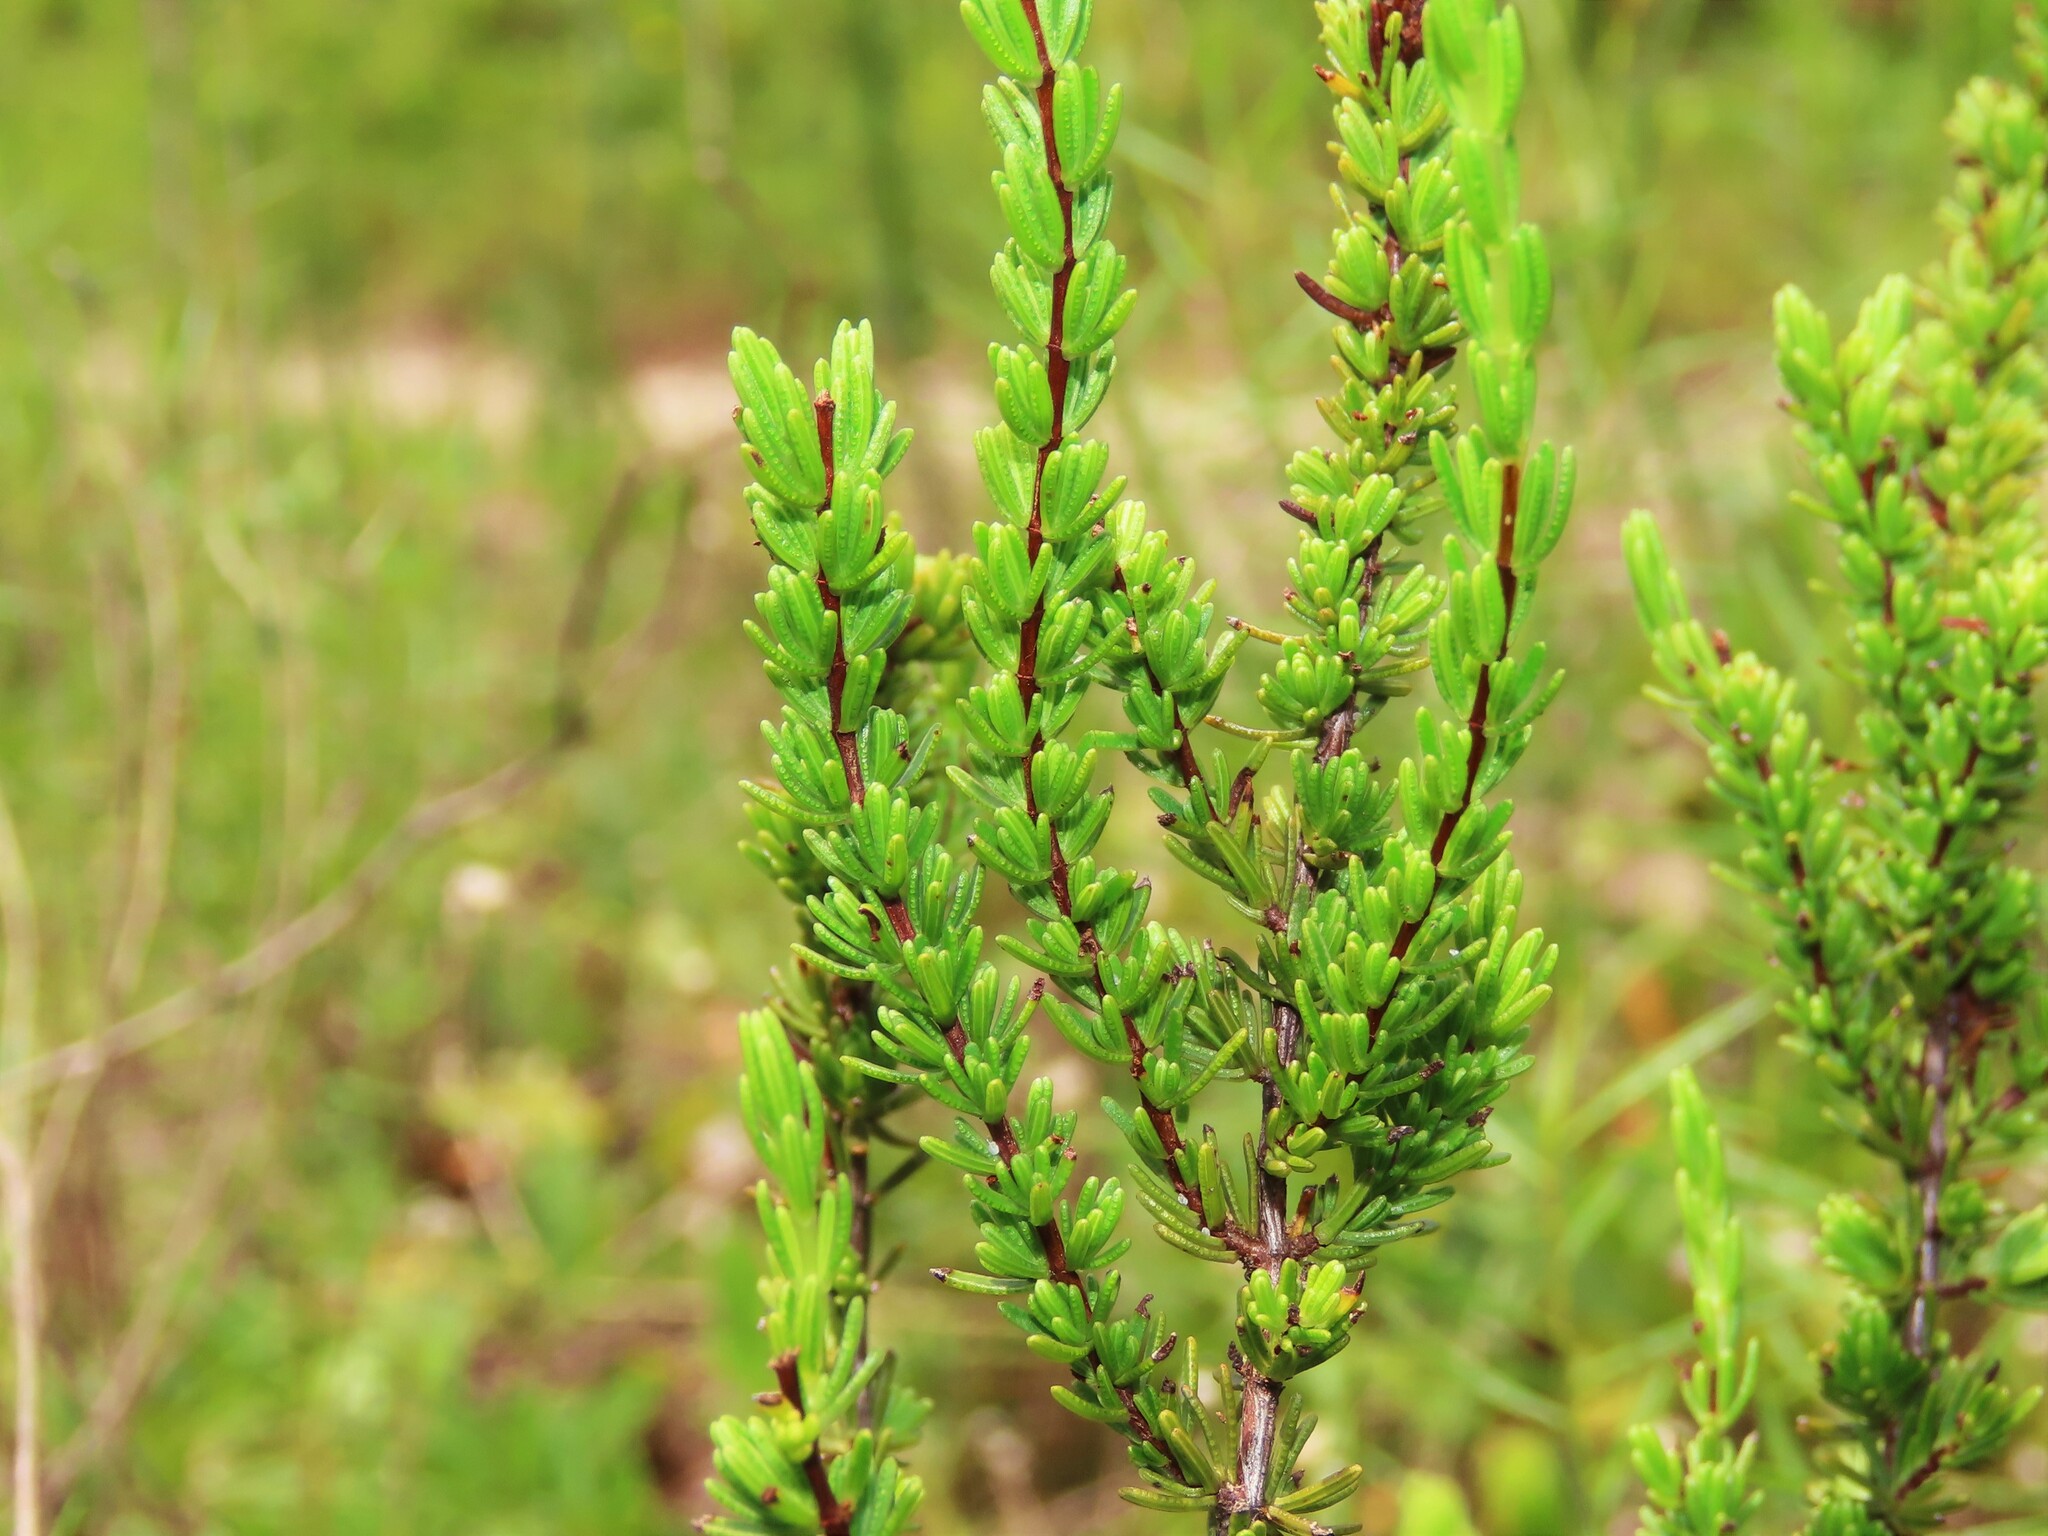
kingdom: Plantae
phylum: Tracheophyta
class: Magnoliopsida
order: Malpighiales
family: Hypericaceae
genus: Hypericum
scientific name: Hypericum tenuifolium
